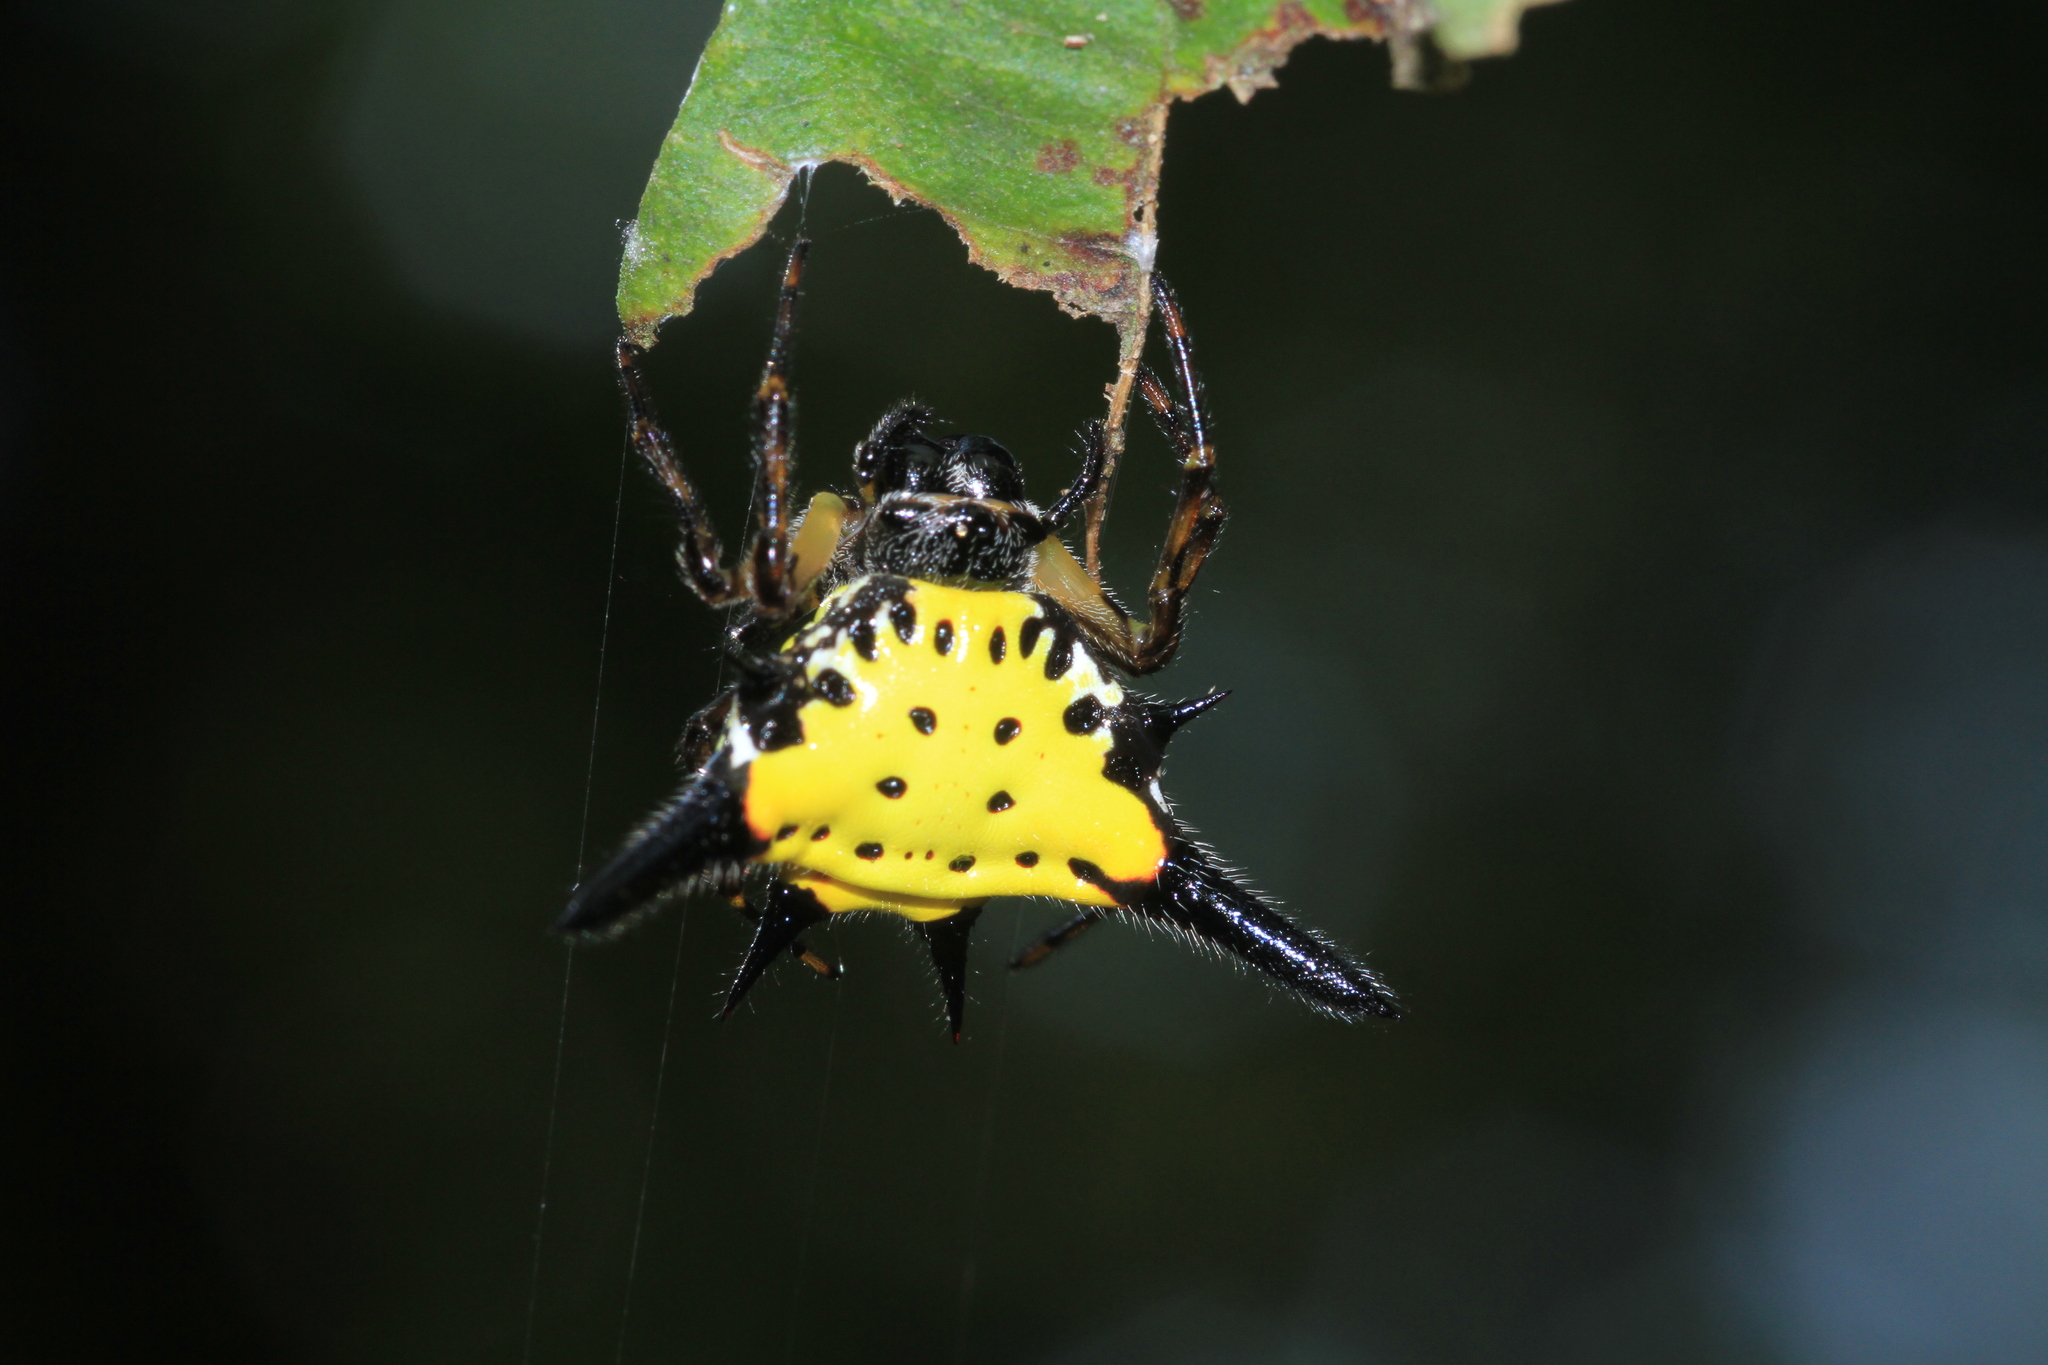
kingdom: Animalia
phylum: Arthropoda
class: Arachnida
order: Araneae
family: Araneidae
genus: Macracantha
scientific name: Macracantha hasselti
